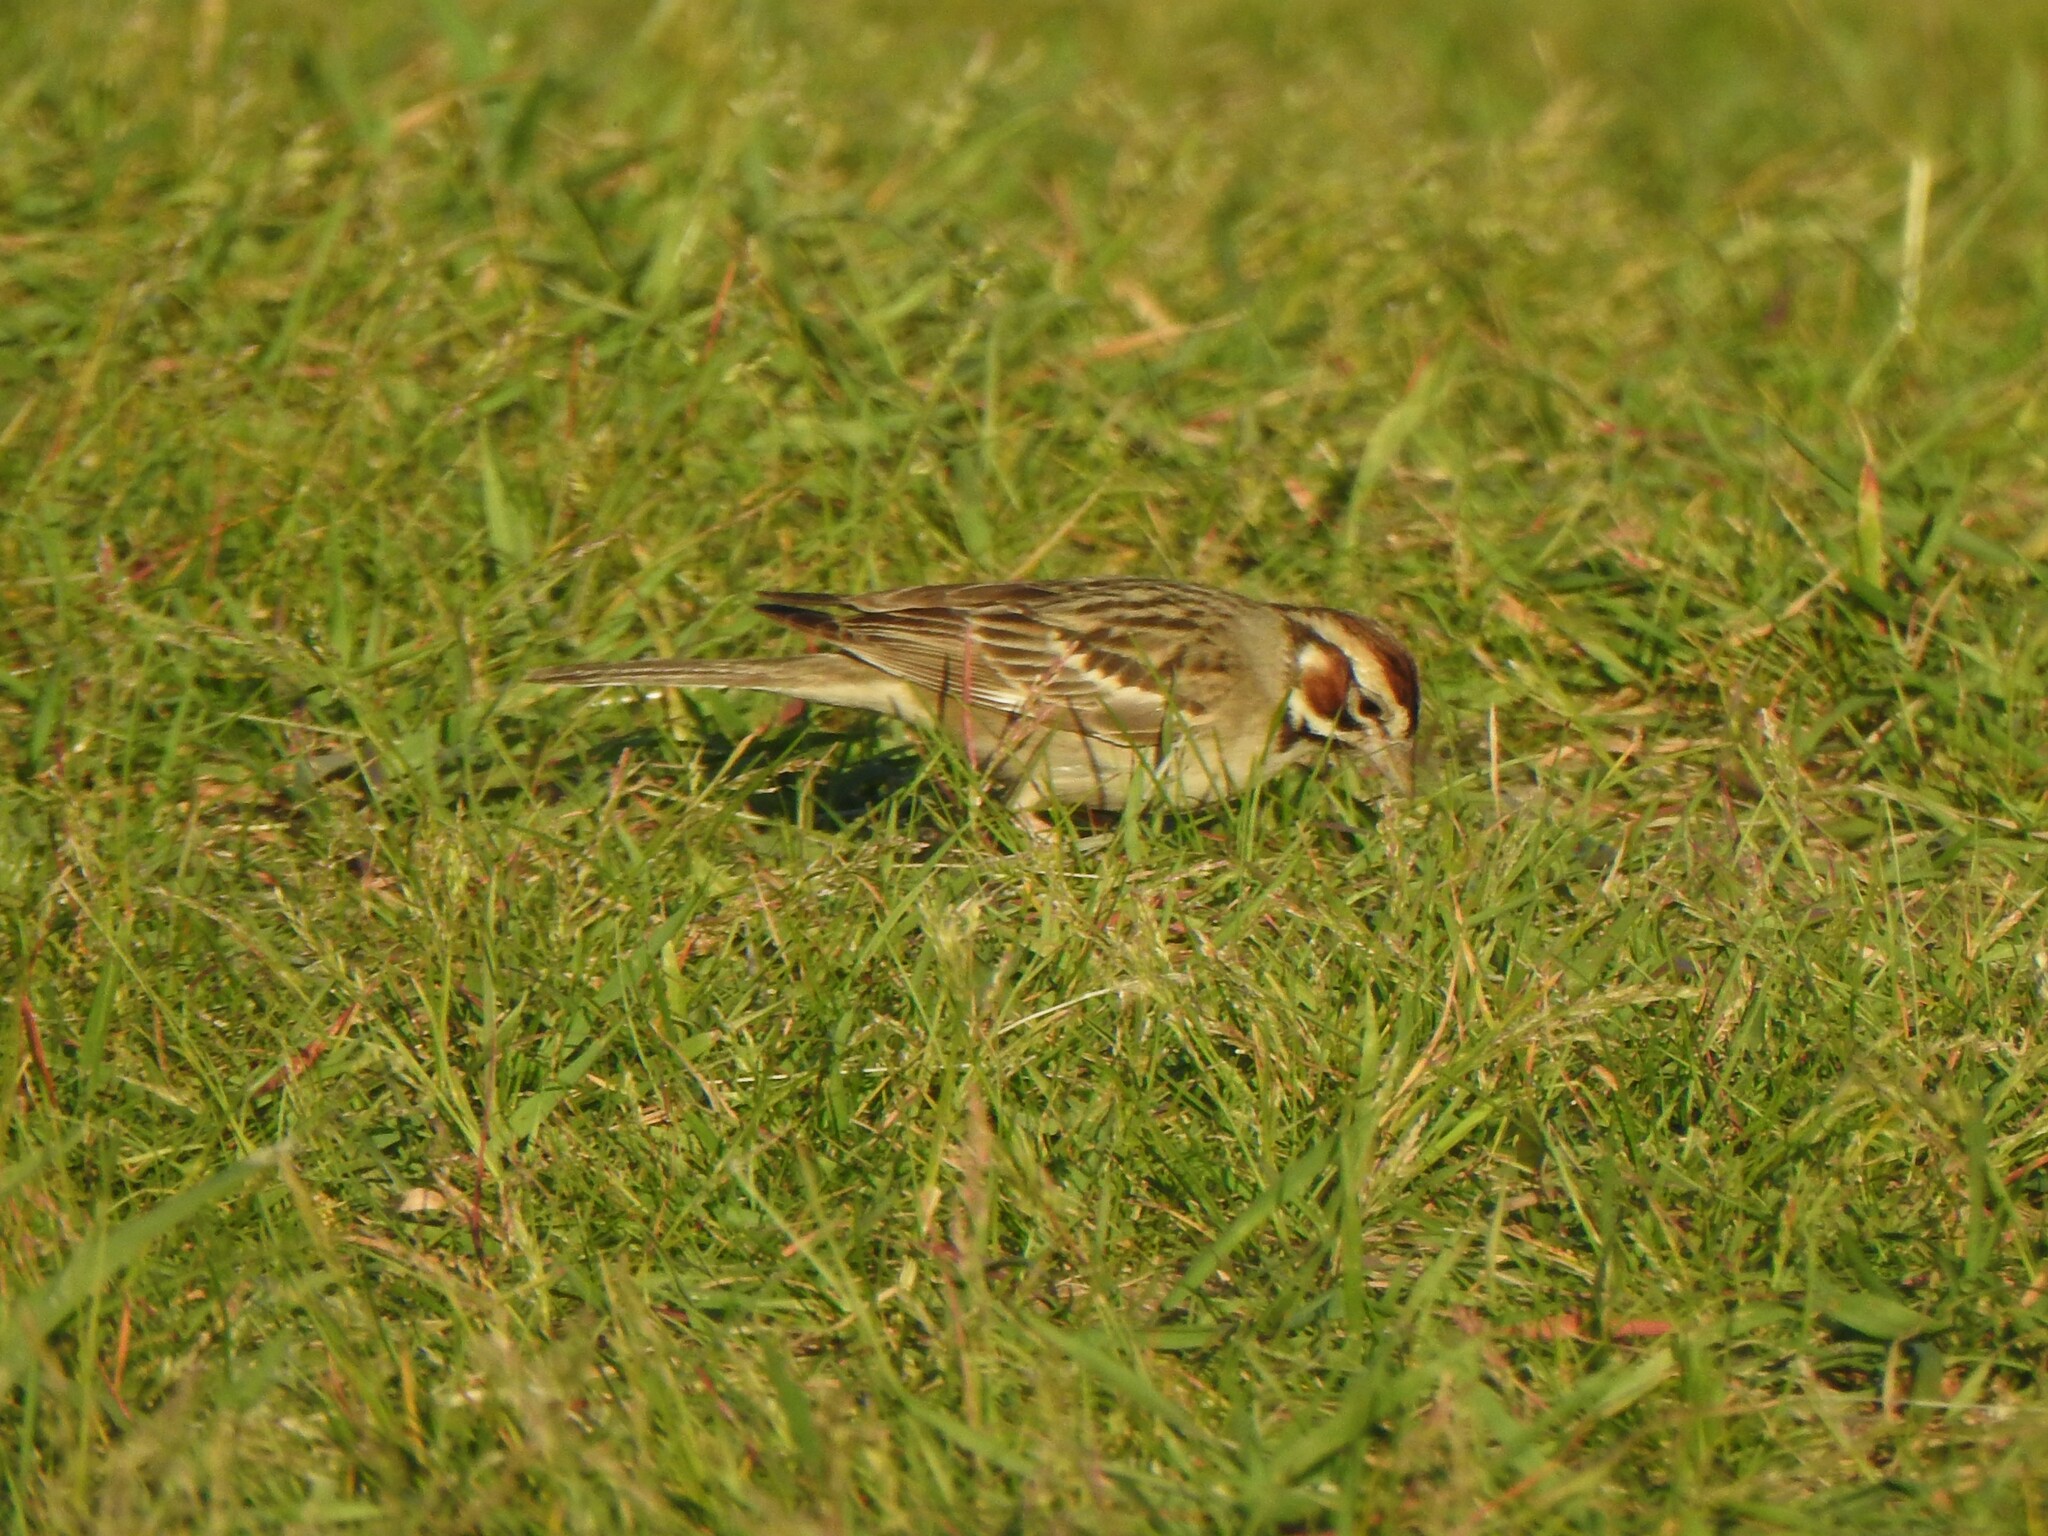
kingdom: Animalia
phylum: Chordata
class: Aves
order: Passeriformes
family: Passerellidae
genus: Chondestes
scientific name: Chondestes grammacus
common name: Lark sparrow
